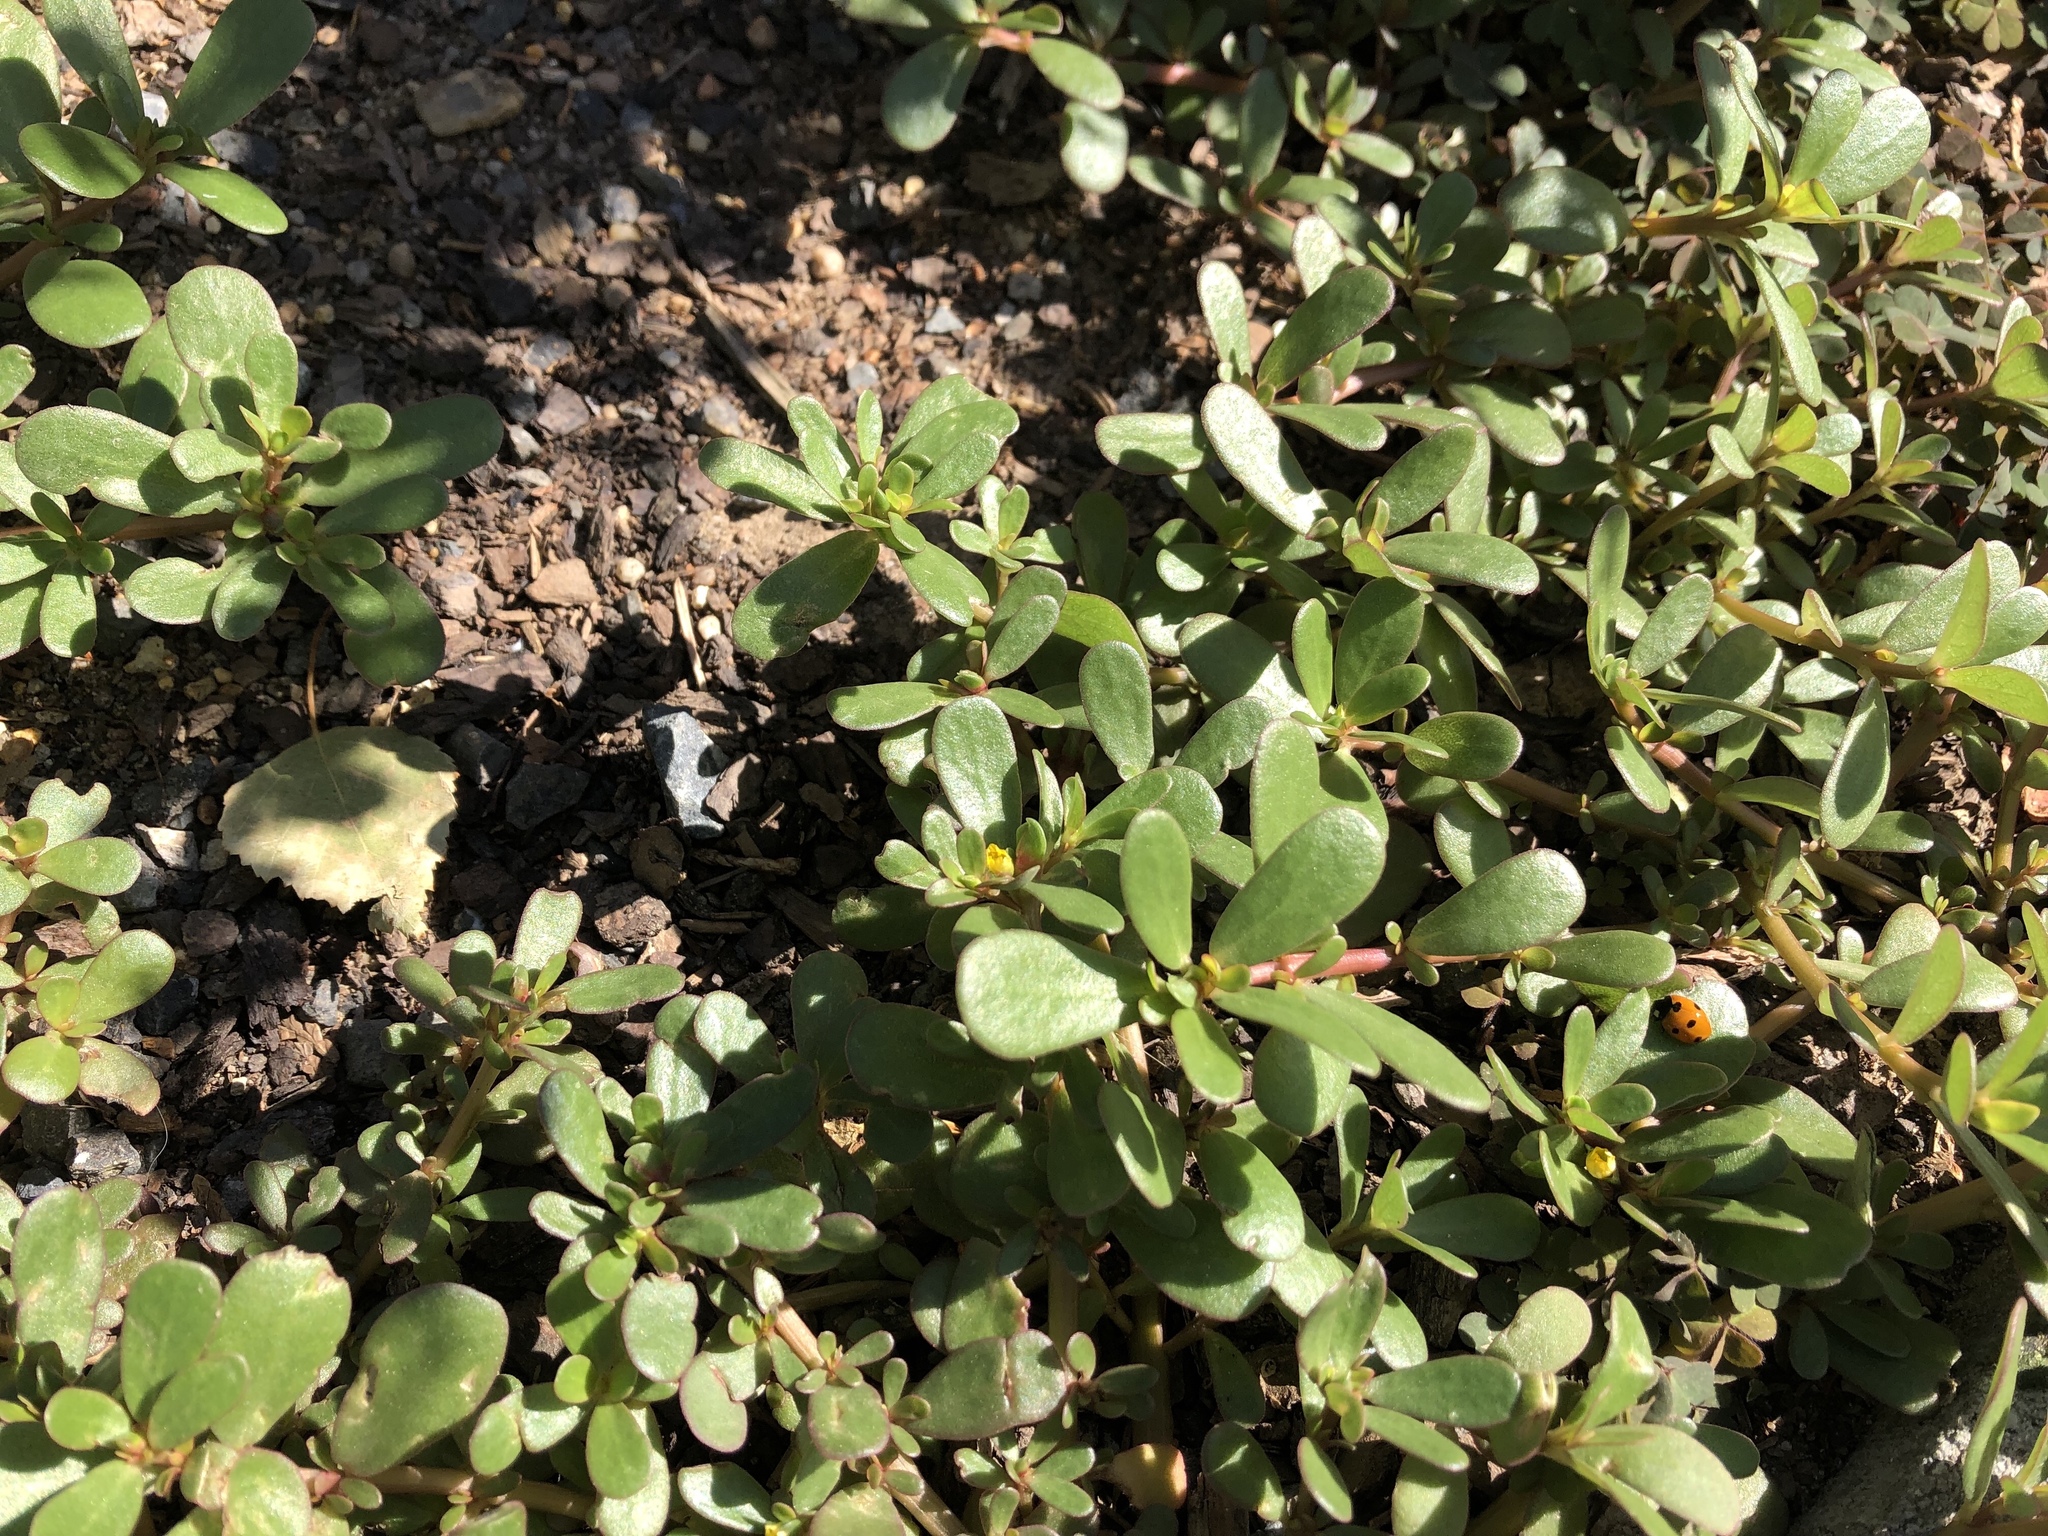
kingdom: Plantae
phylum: Tracheophyta
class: Magnoliopsida
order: Caryophyllales
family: Portulacaceae
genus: Portulaca
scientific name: Portulaca oleracea
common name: Common purslane
